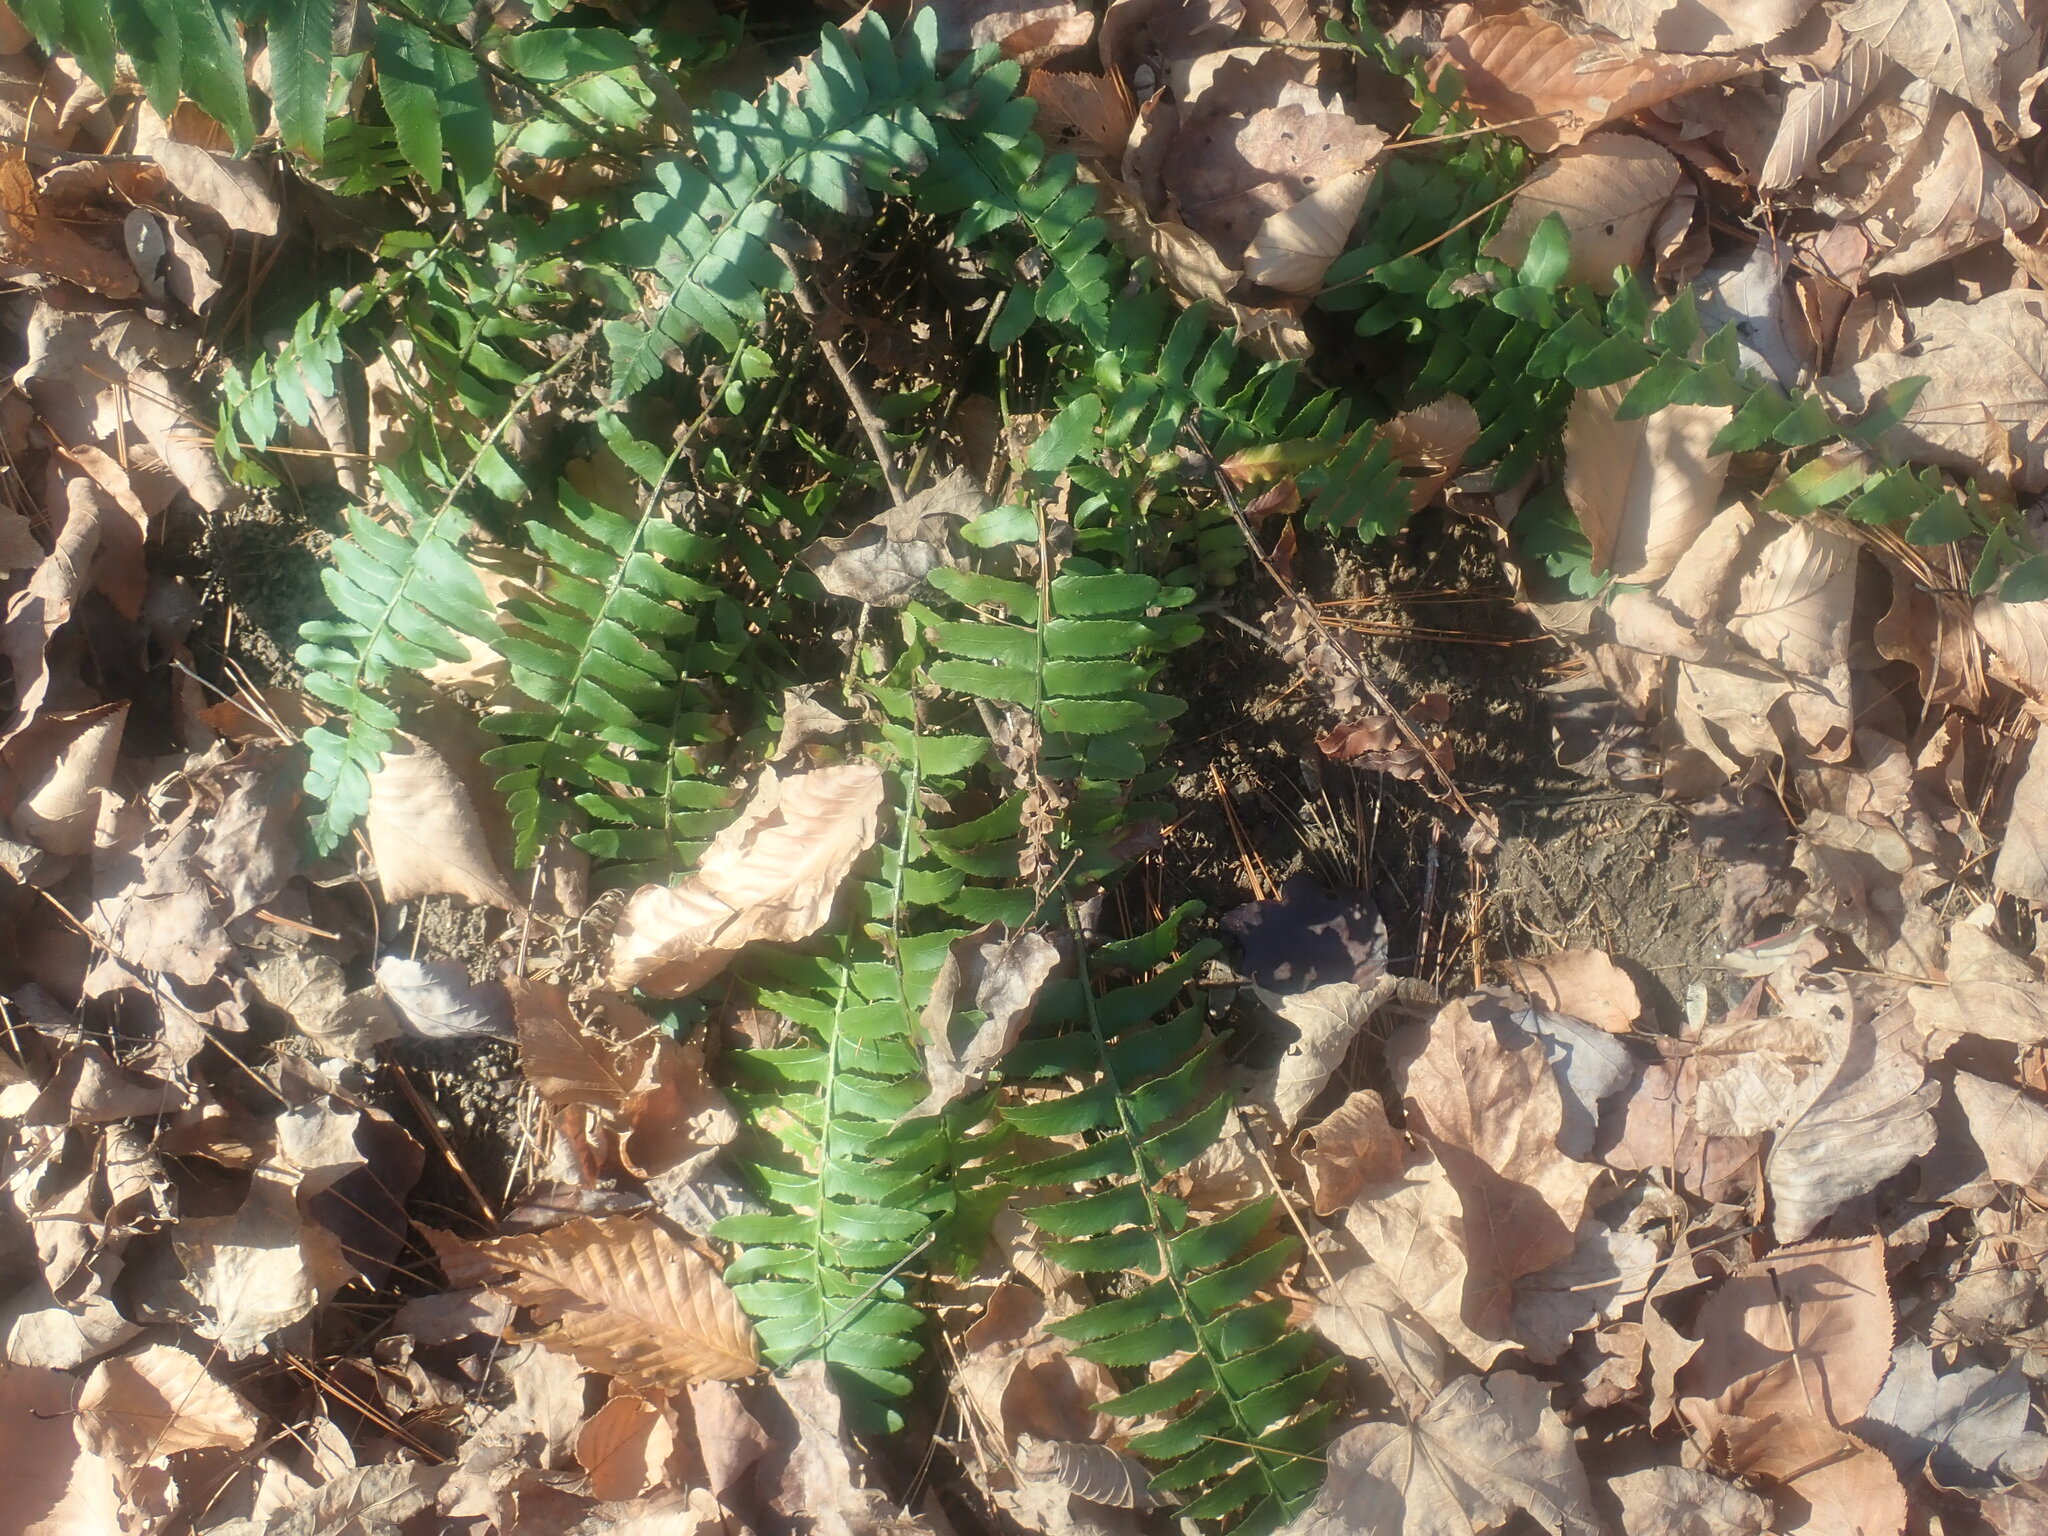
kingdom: Plantae
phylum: Tracheophyta
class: Polypodiopsida
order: Polypodiales
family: Dryopteridaceae
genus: Polystichum
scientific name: Polystichum acrostichoides
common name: Christmas fern
